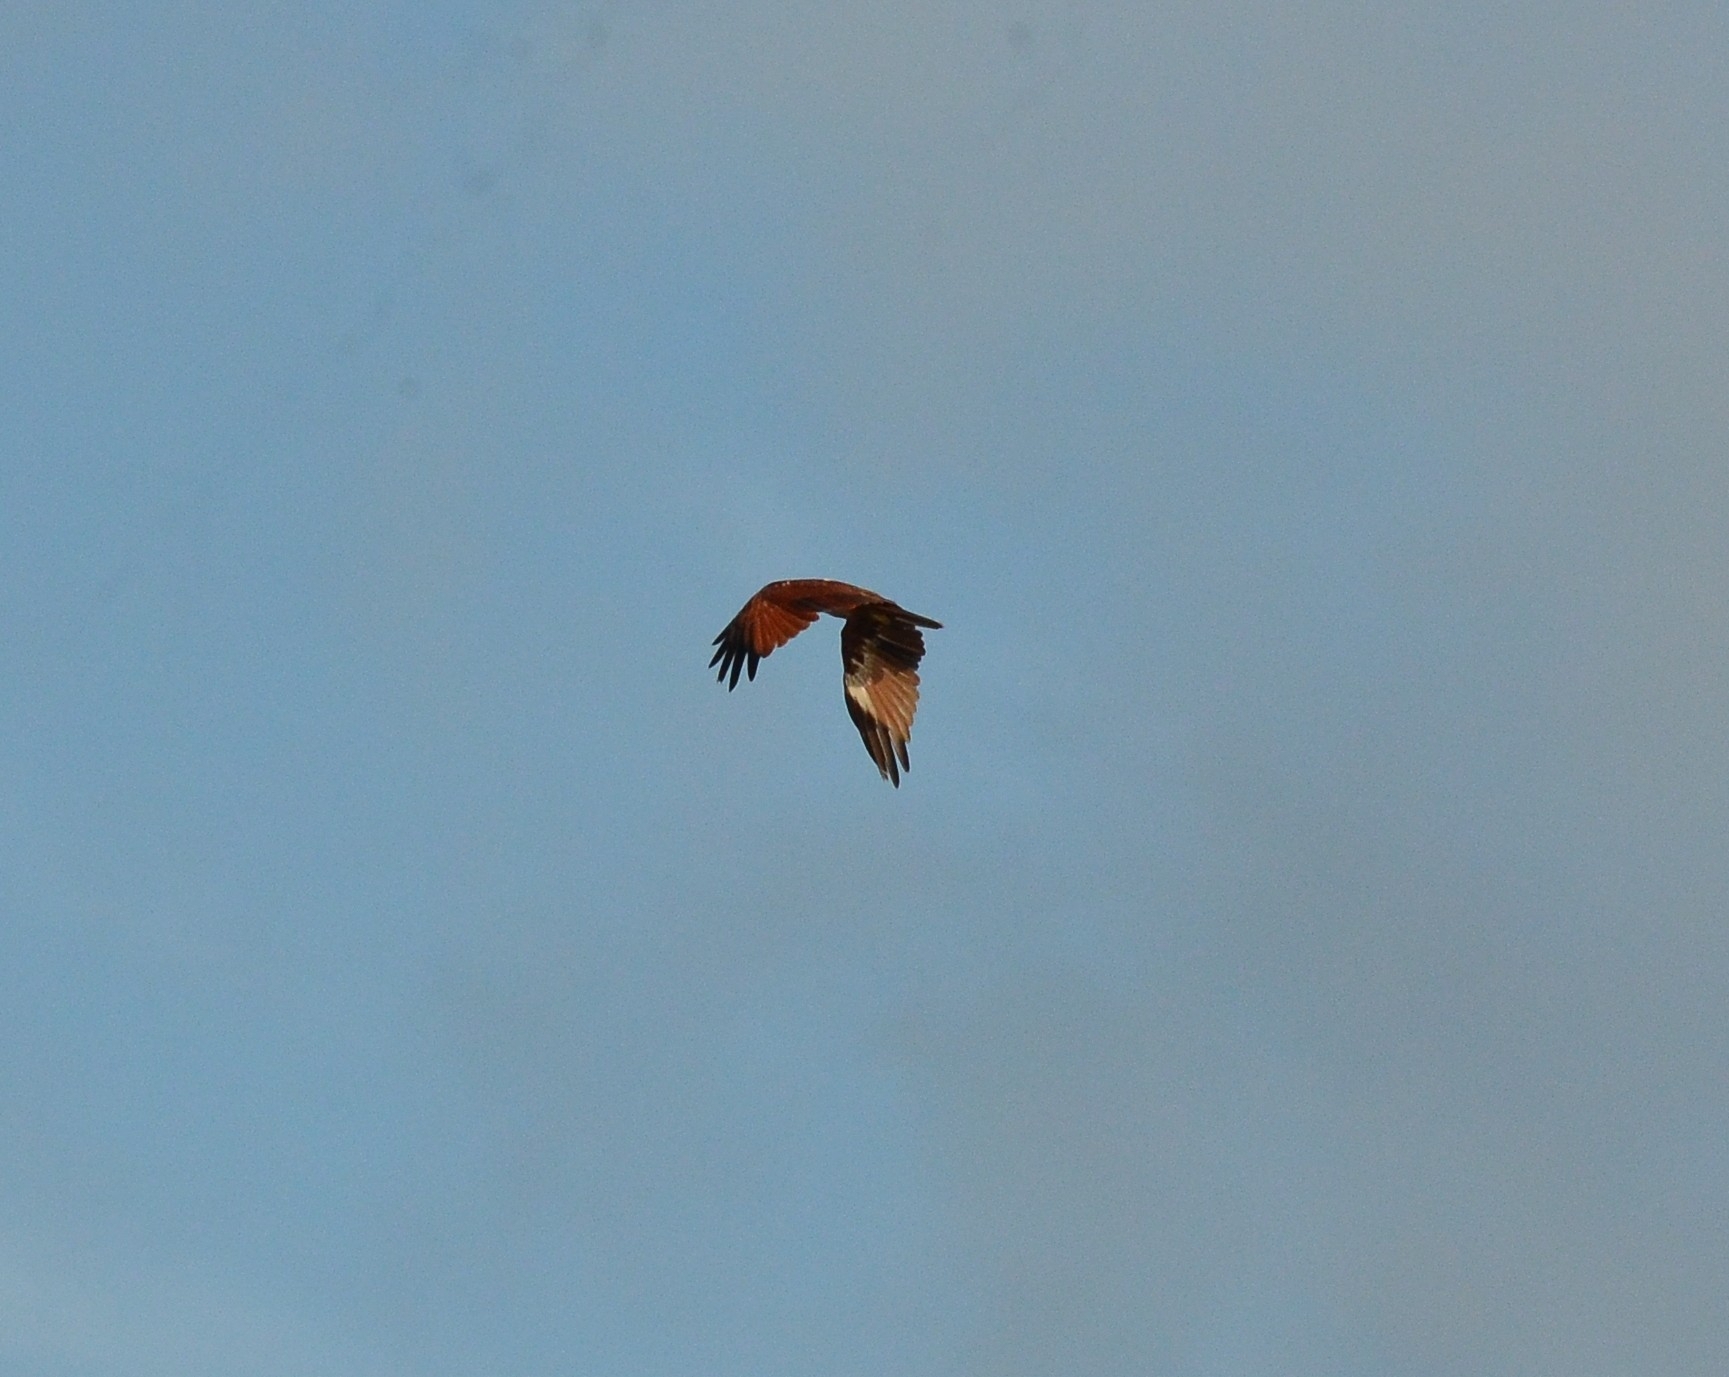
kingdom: Animalia
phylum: Chordata
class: Aves
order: Accipitriformes
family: Accipitridae
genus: Haliastur
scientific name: Haliastur indus
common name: Brahminy kite
